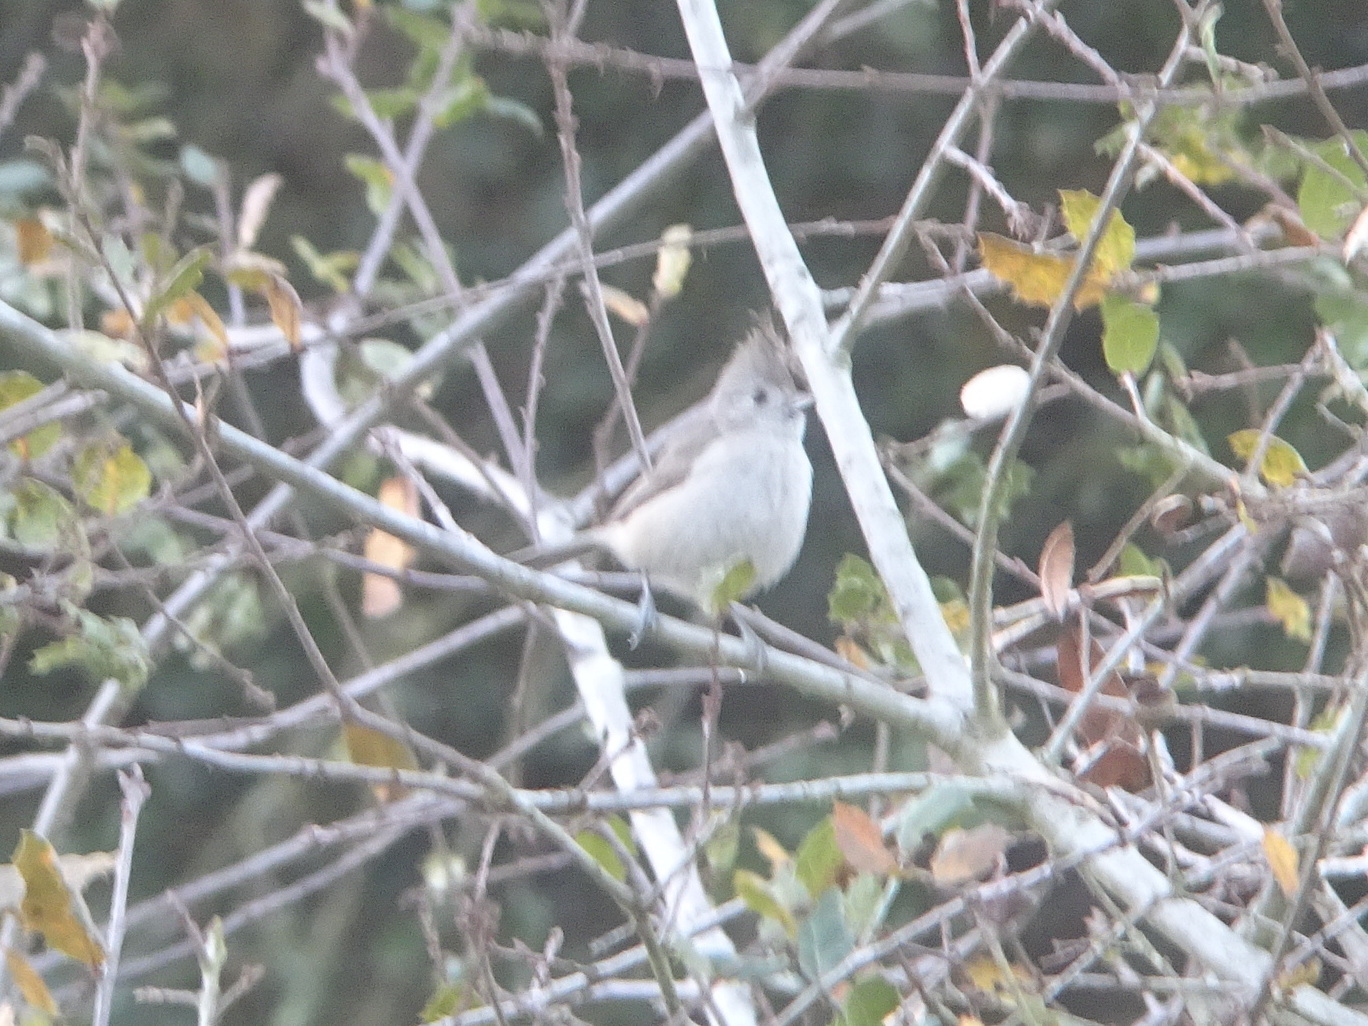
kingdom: Animalia
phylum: Chordata
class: Aves
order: Passeriformes
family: Paridae
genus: Baeolophus
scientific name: Baeolophus inornatus
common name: Oak titmouse
